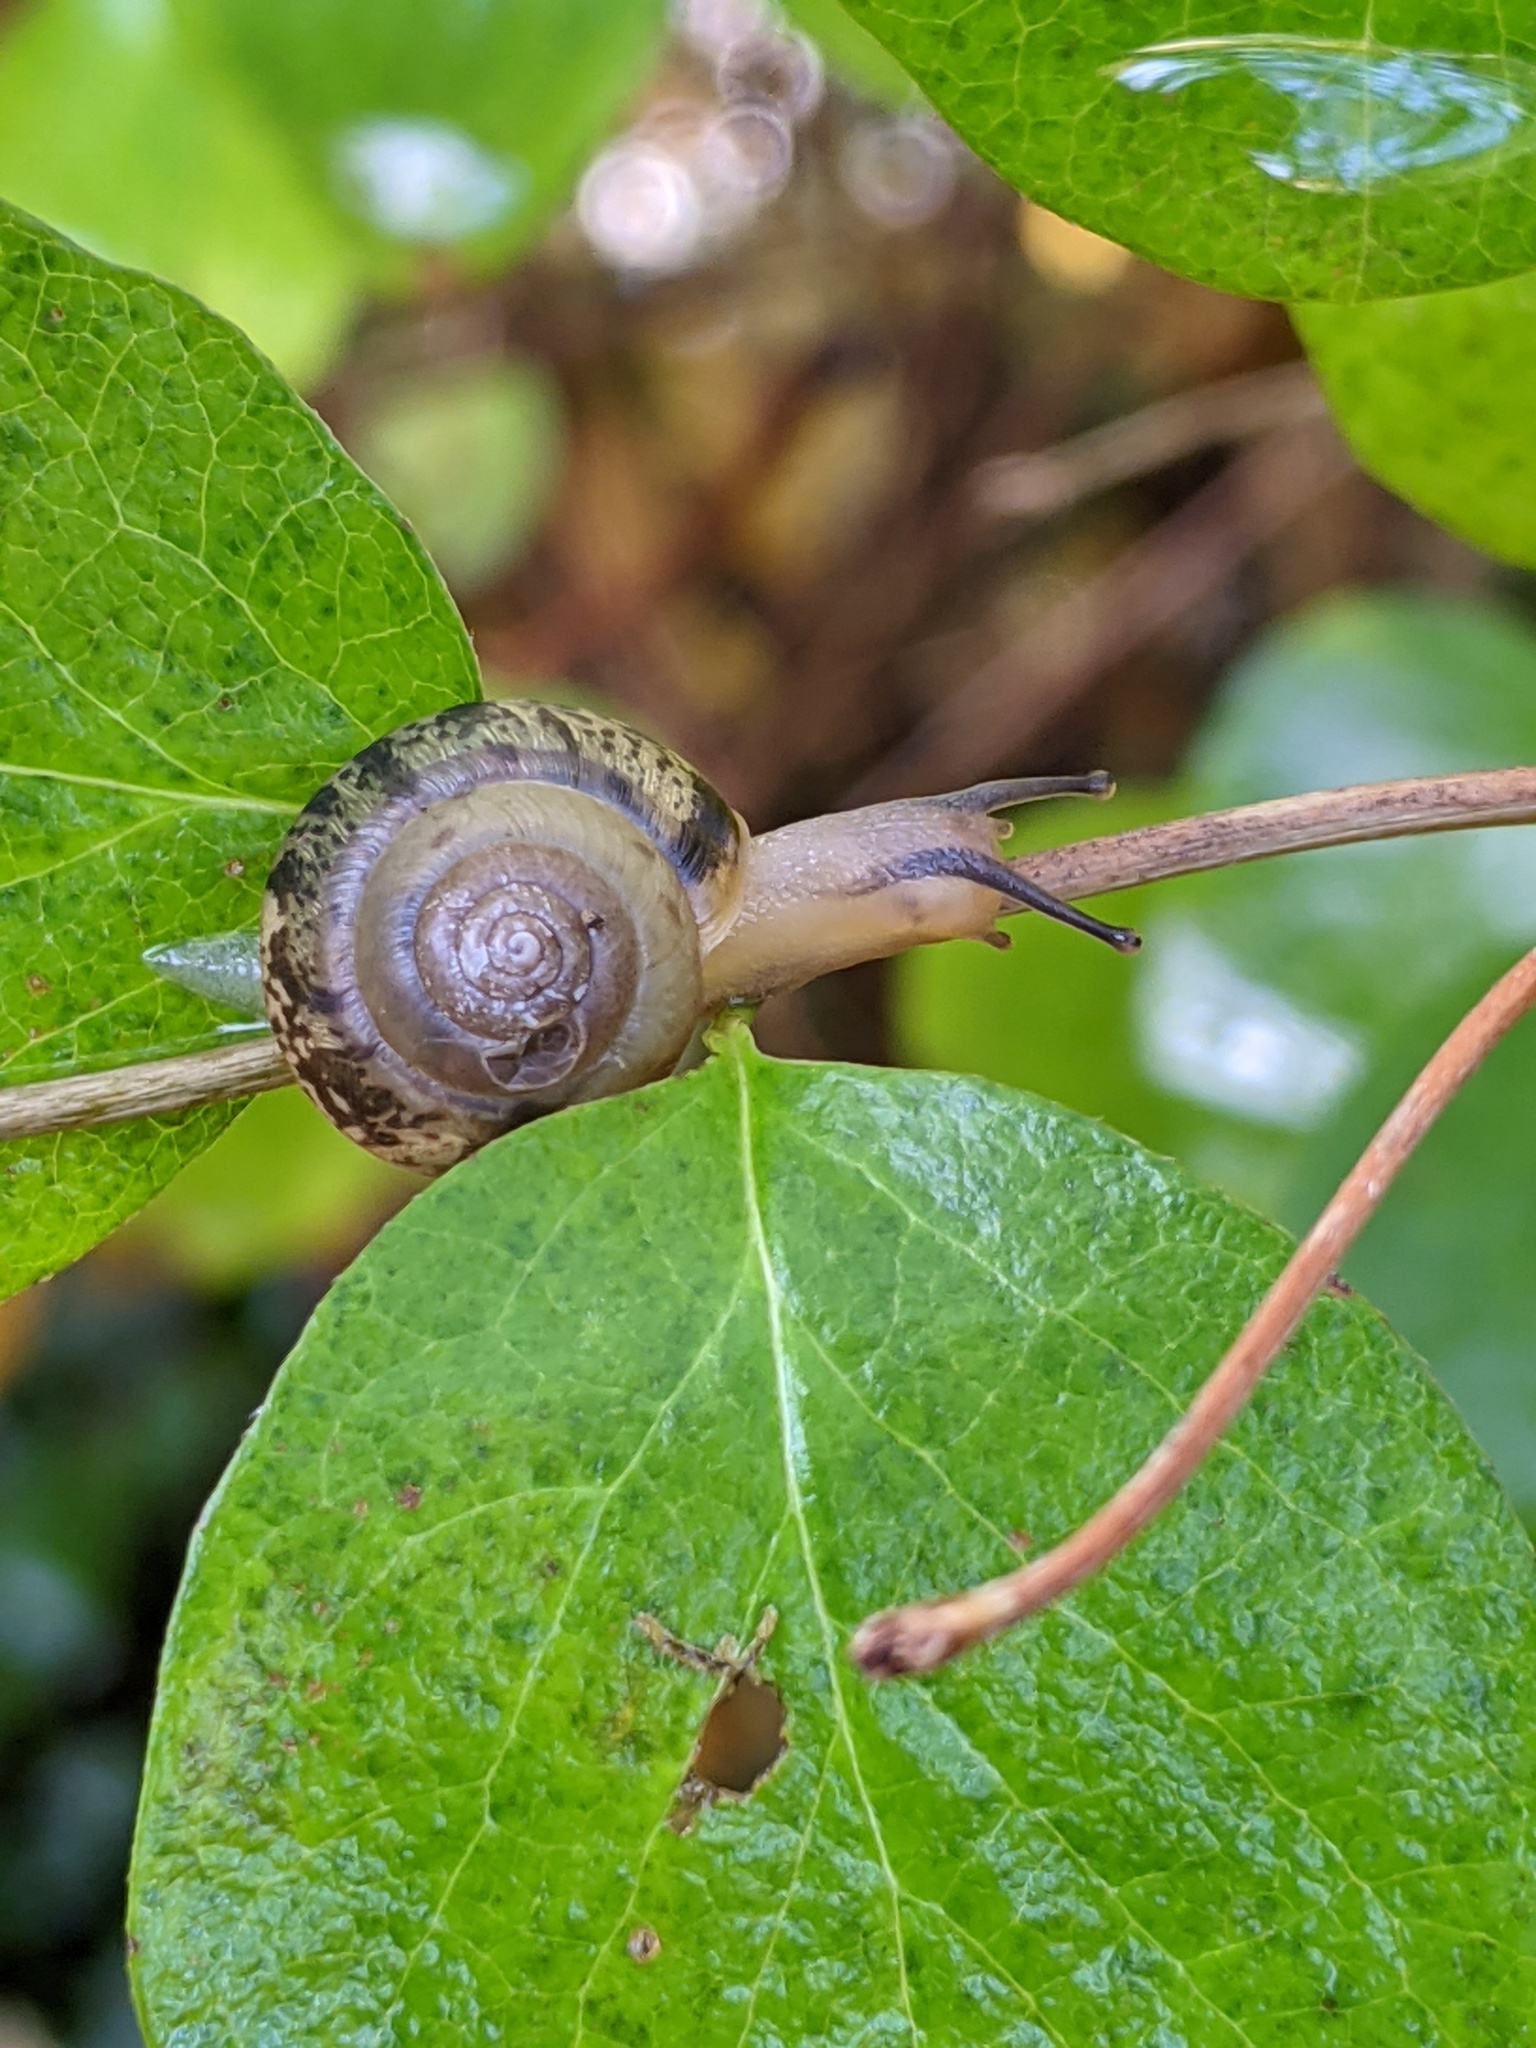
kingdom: Animalia
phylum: Mollusca
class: Gastropoda
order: Stylommatophora
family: Hygromiidae
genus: Hygromia
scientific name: Hygromia cinctella
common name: Girdled snail
